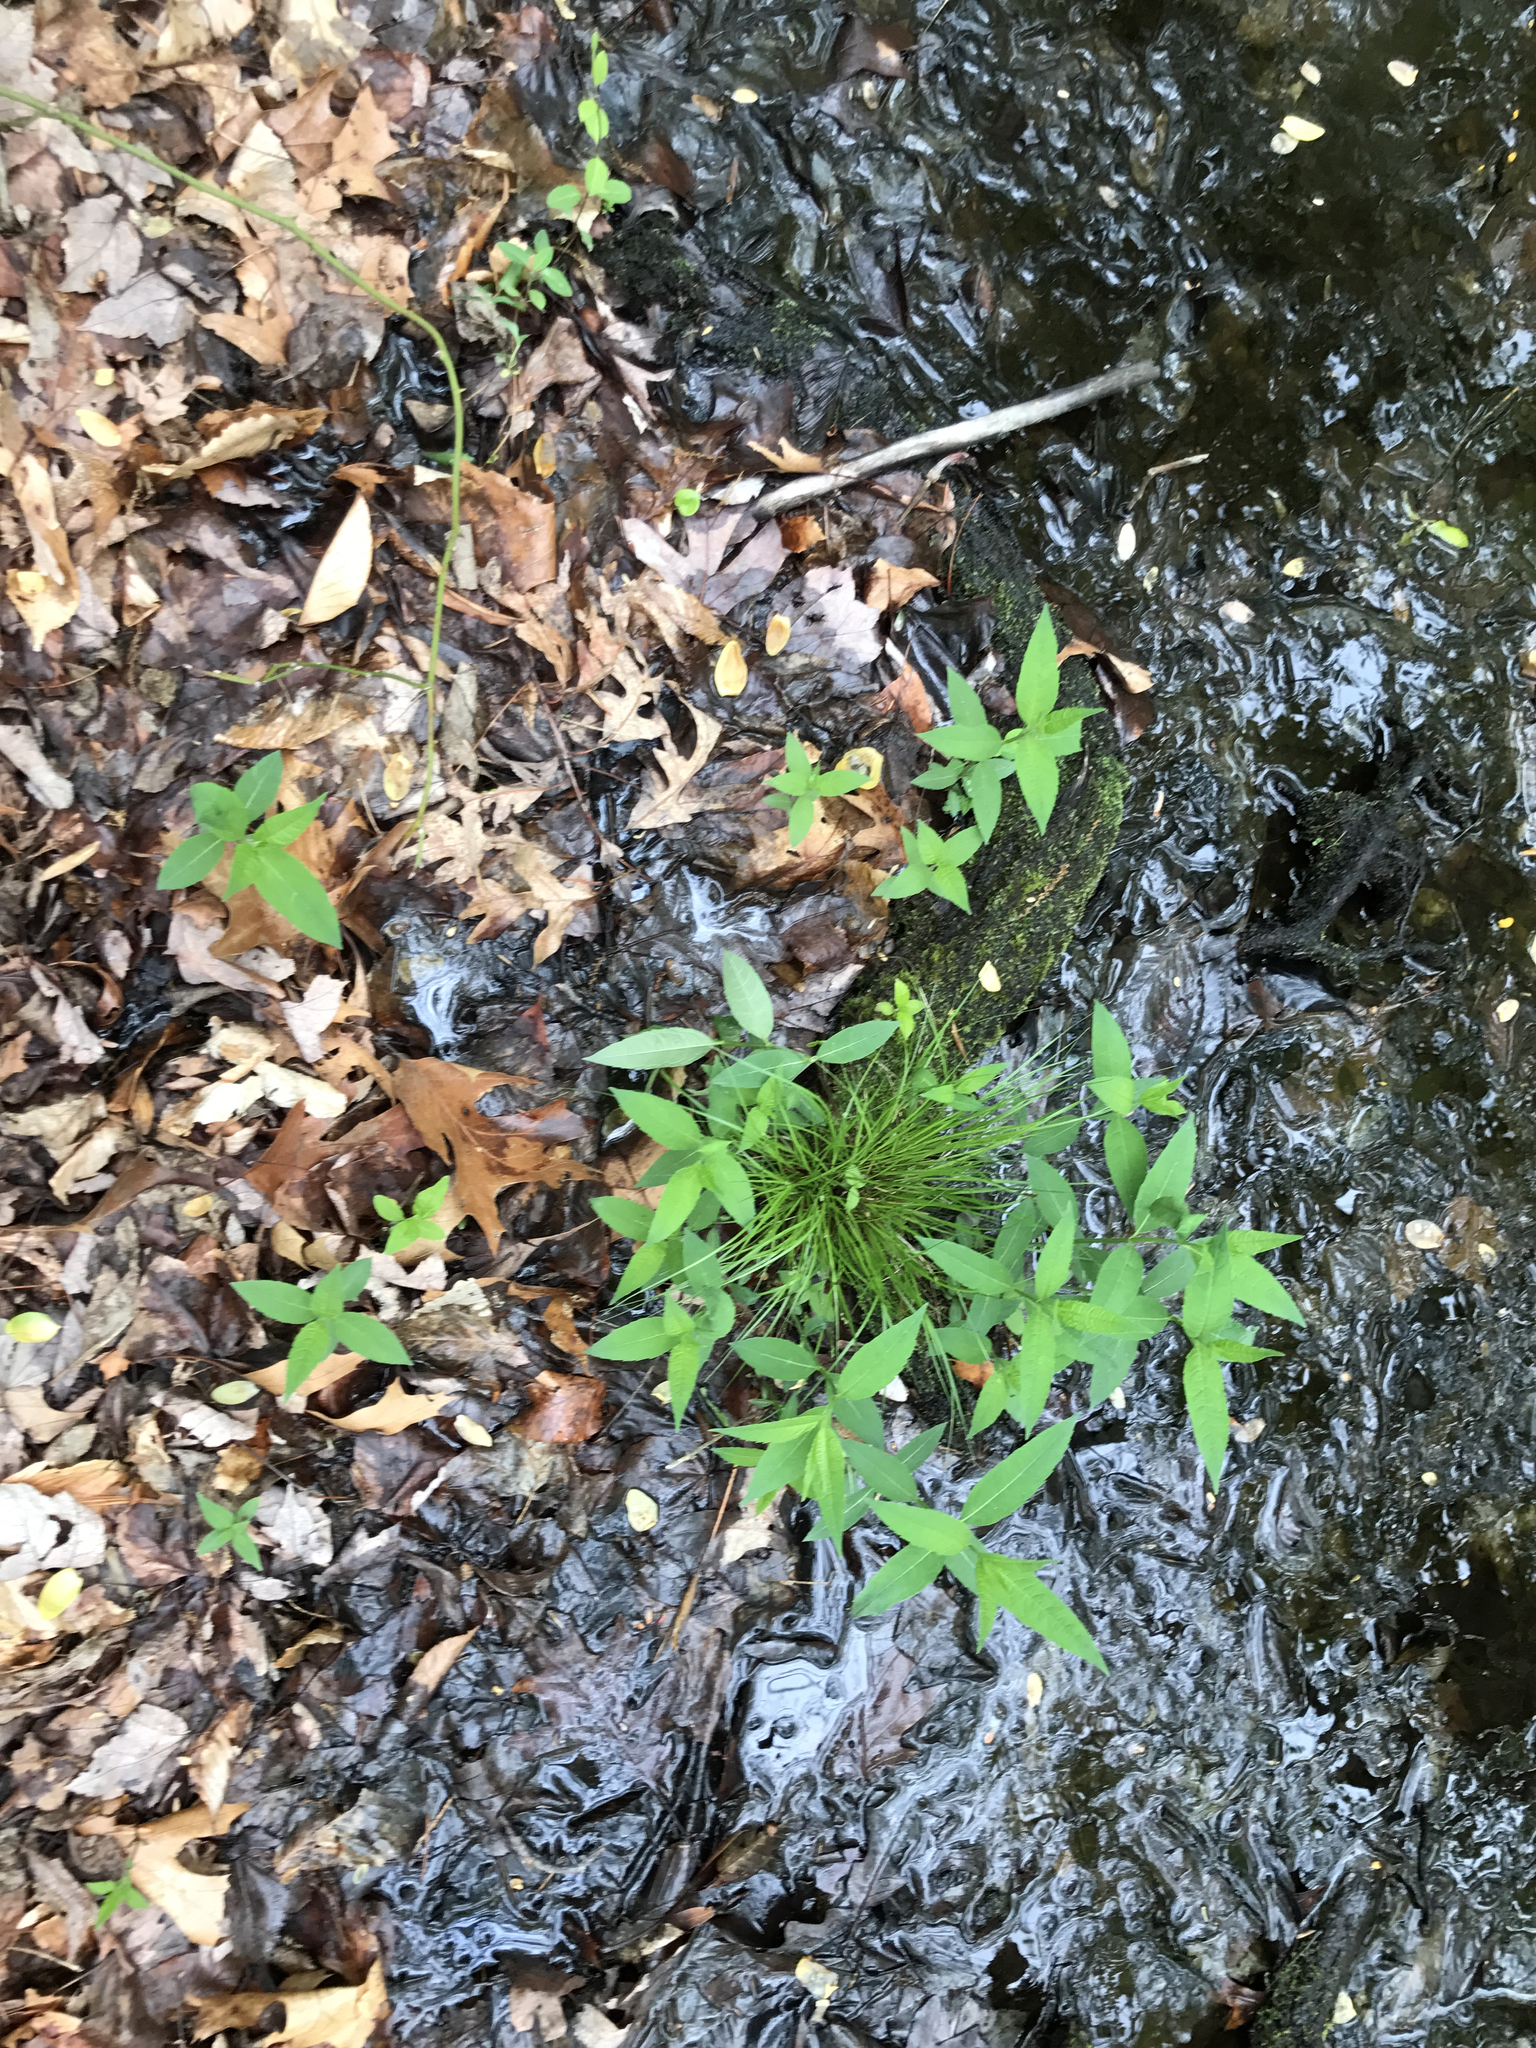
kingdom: Plantae
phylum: Tracheophyta
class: Magnoliopsida
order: Lamiales
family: Plantaginaceae
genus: Chelone
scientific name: Chelone glabra
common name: Snakehead
